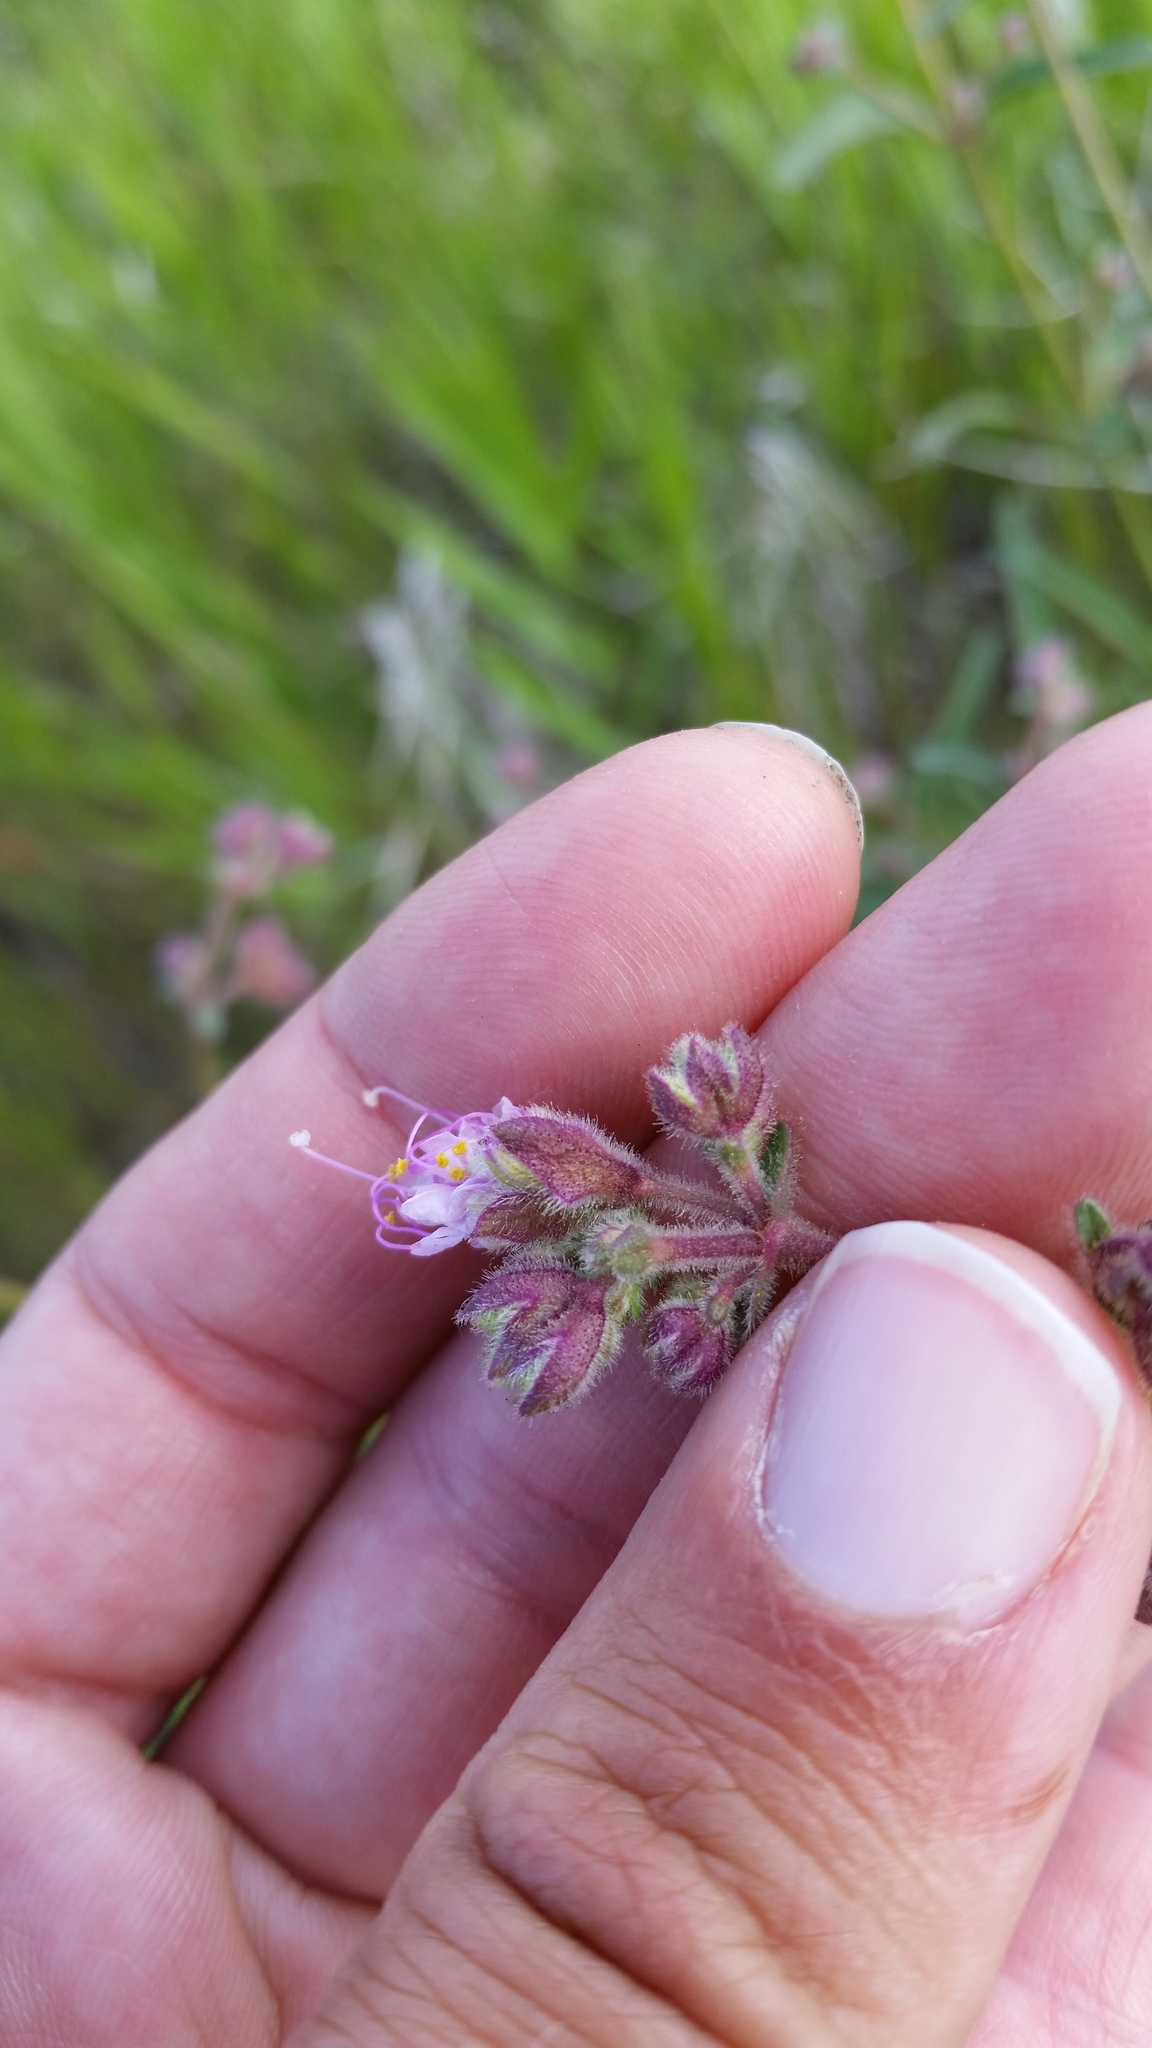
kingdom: Plantae
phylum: Tracheophyta
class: Magnoliopsida
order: Caryophyllales
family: Nyctaginaceae
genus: Mirabilis
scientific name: Mirabilis linearis
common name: Linear-leaved four-o'clock
